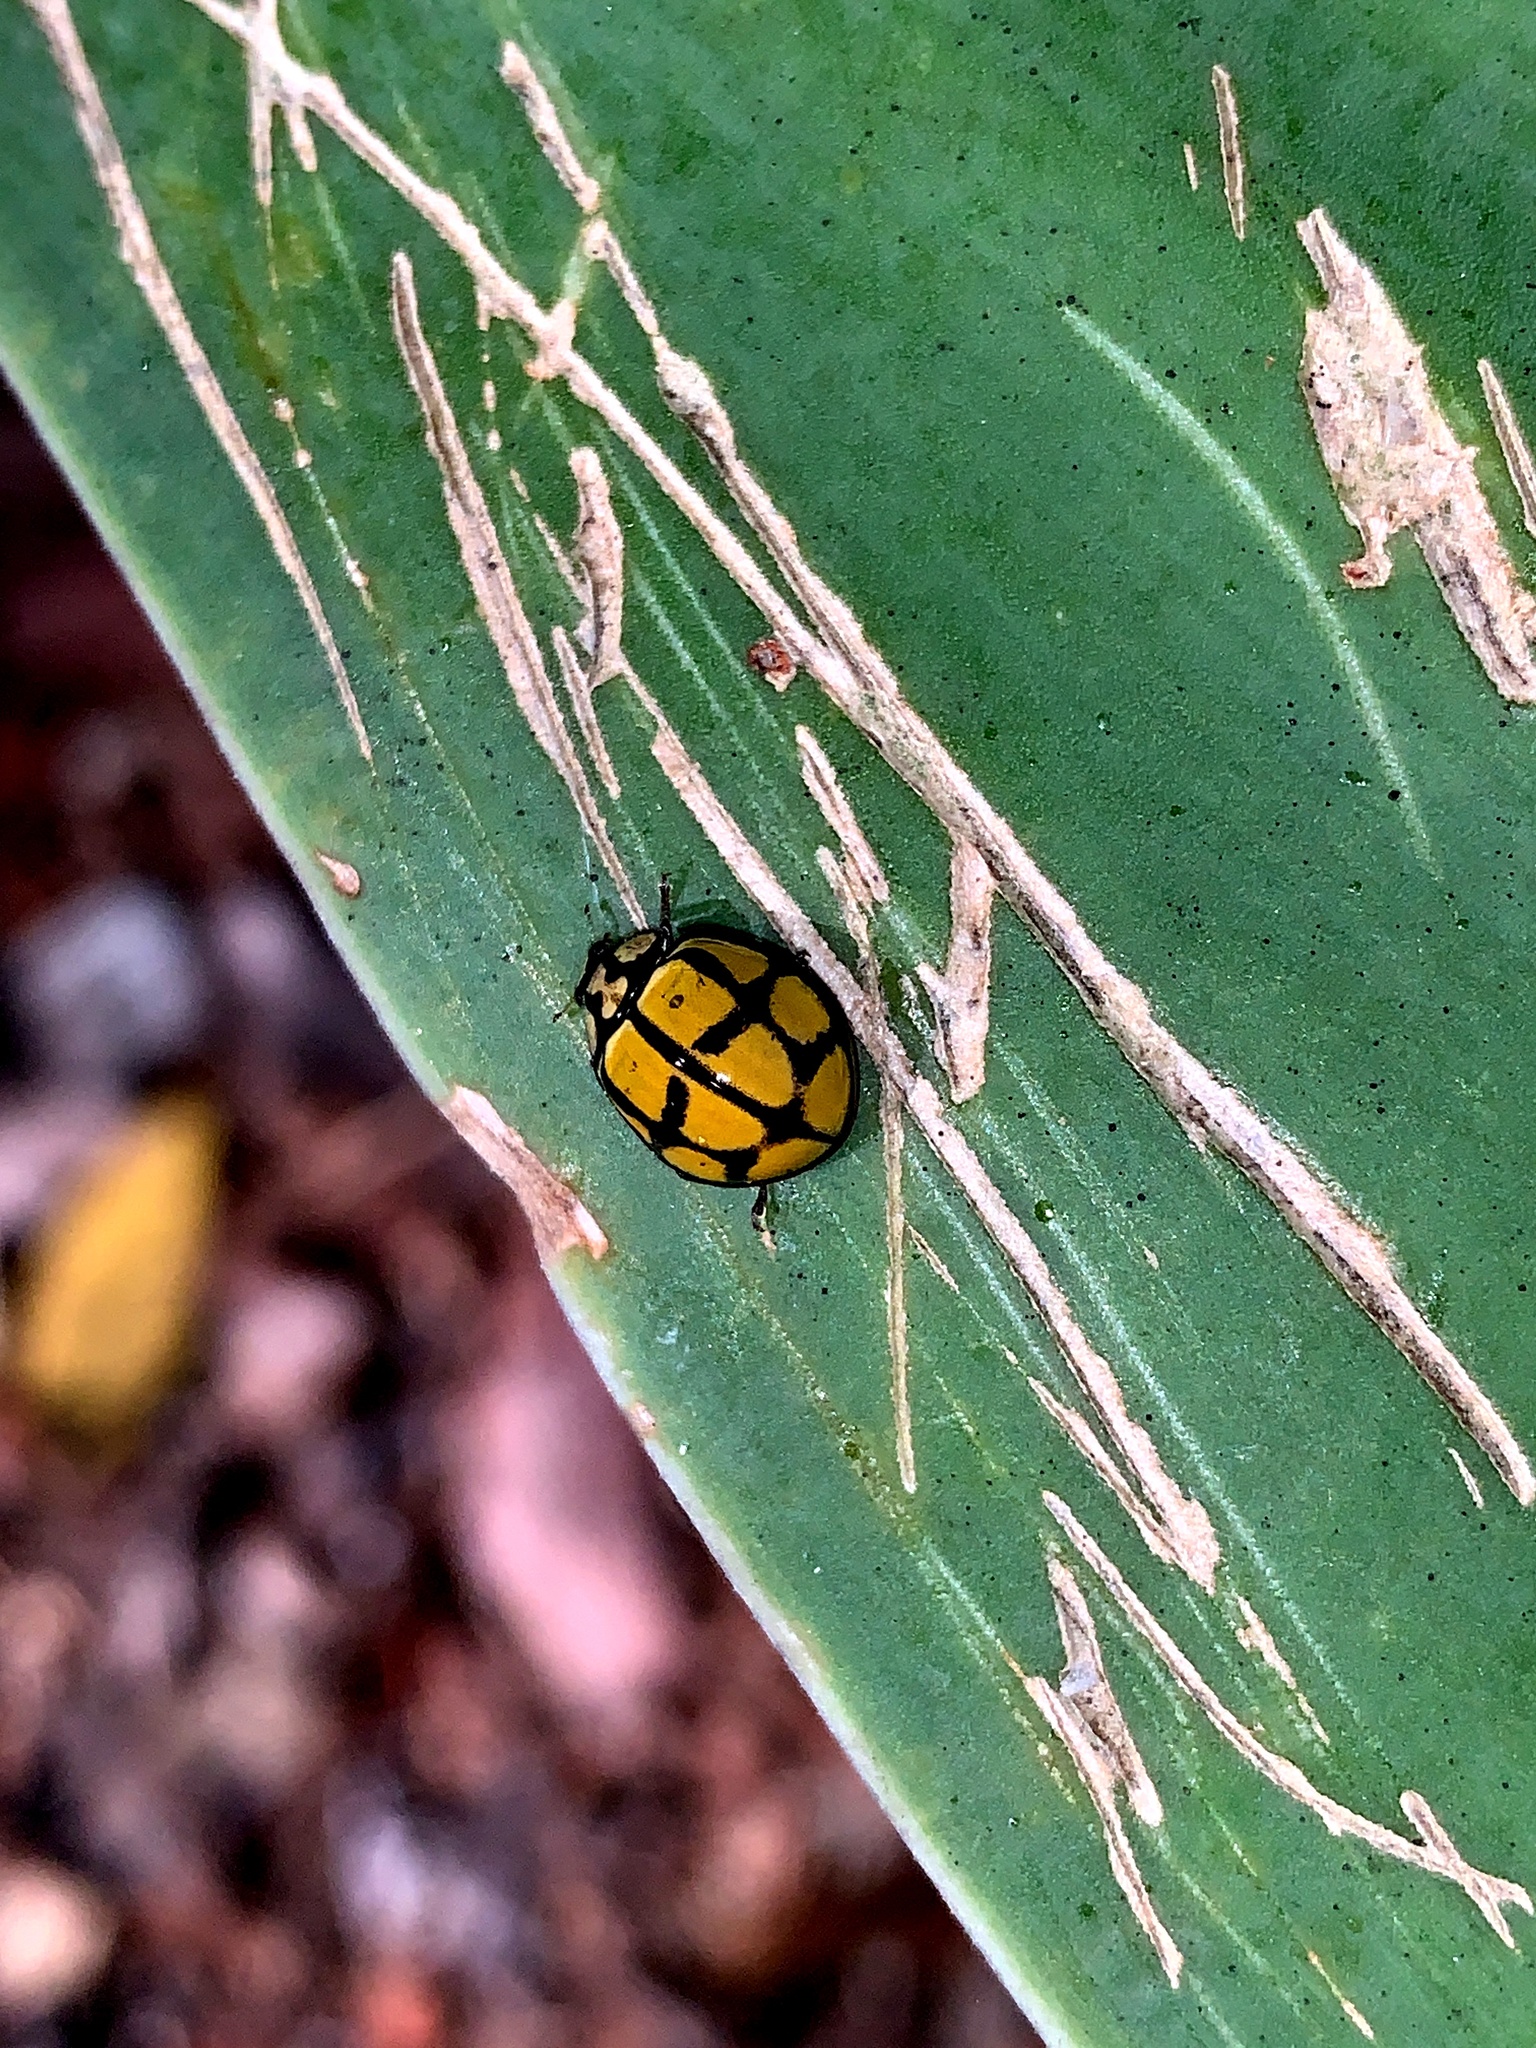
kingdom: Animalia
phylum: Arthropoda
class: Insecta
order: Coleoptera
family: Coccinellidae
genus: Harmonia
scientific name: Harmonia
